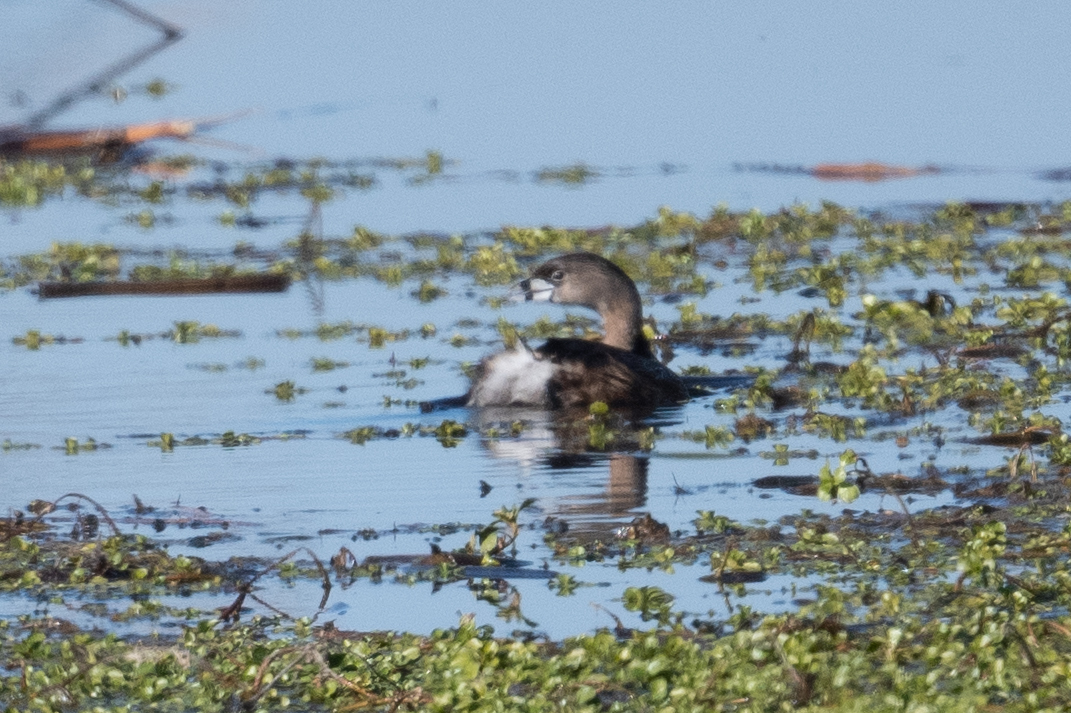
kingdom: Animalia
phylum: Chordata
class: Aves
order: Podicipediformes
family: Podicipedidae
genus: Podilymbus
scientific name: Podilymbus podiceps
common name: Pied-billed grebe
